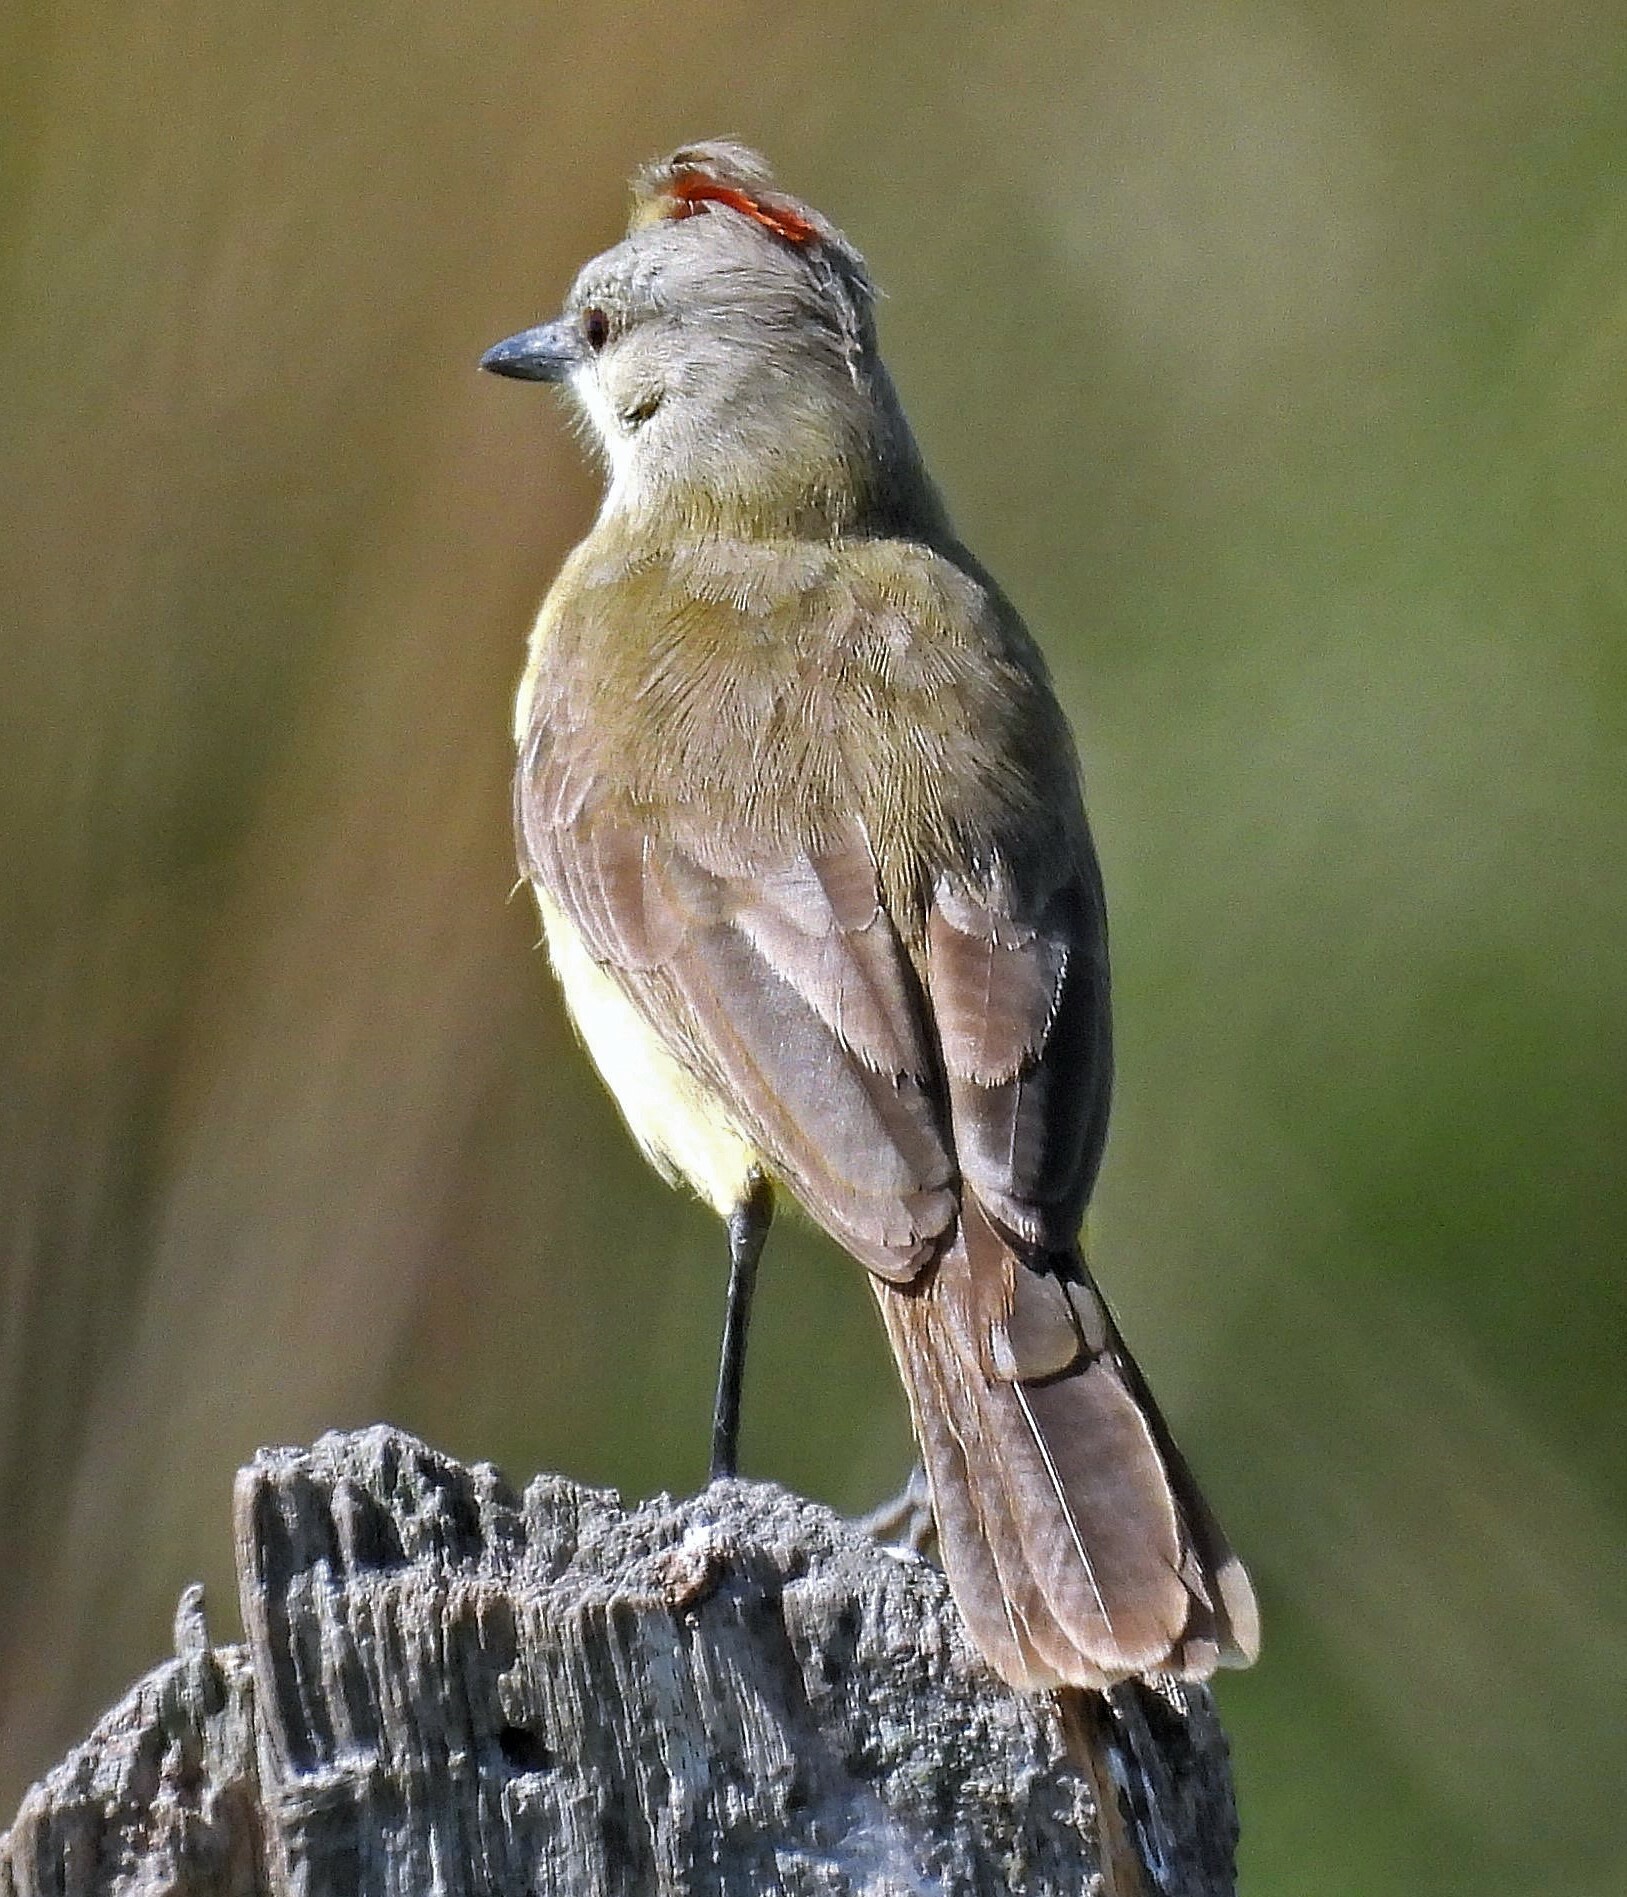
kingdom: Animalia
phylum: Chordata
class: Aves
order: Passeriformes
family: Tyrannidae
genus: Machetornis
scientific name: Machetornis rixosa
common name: Cattle tyrant
